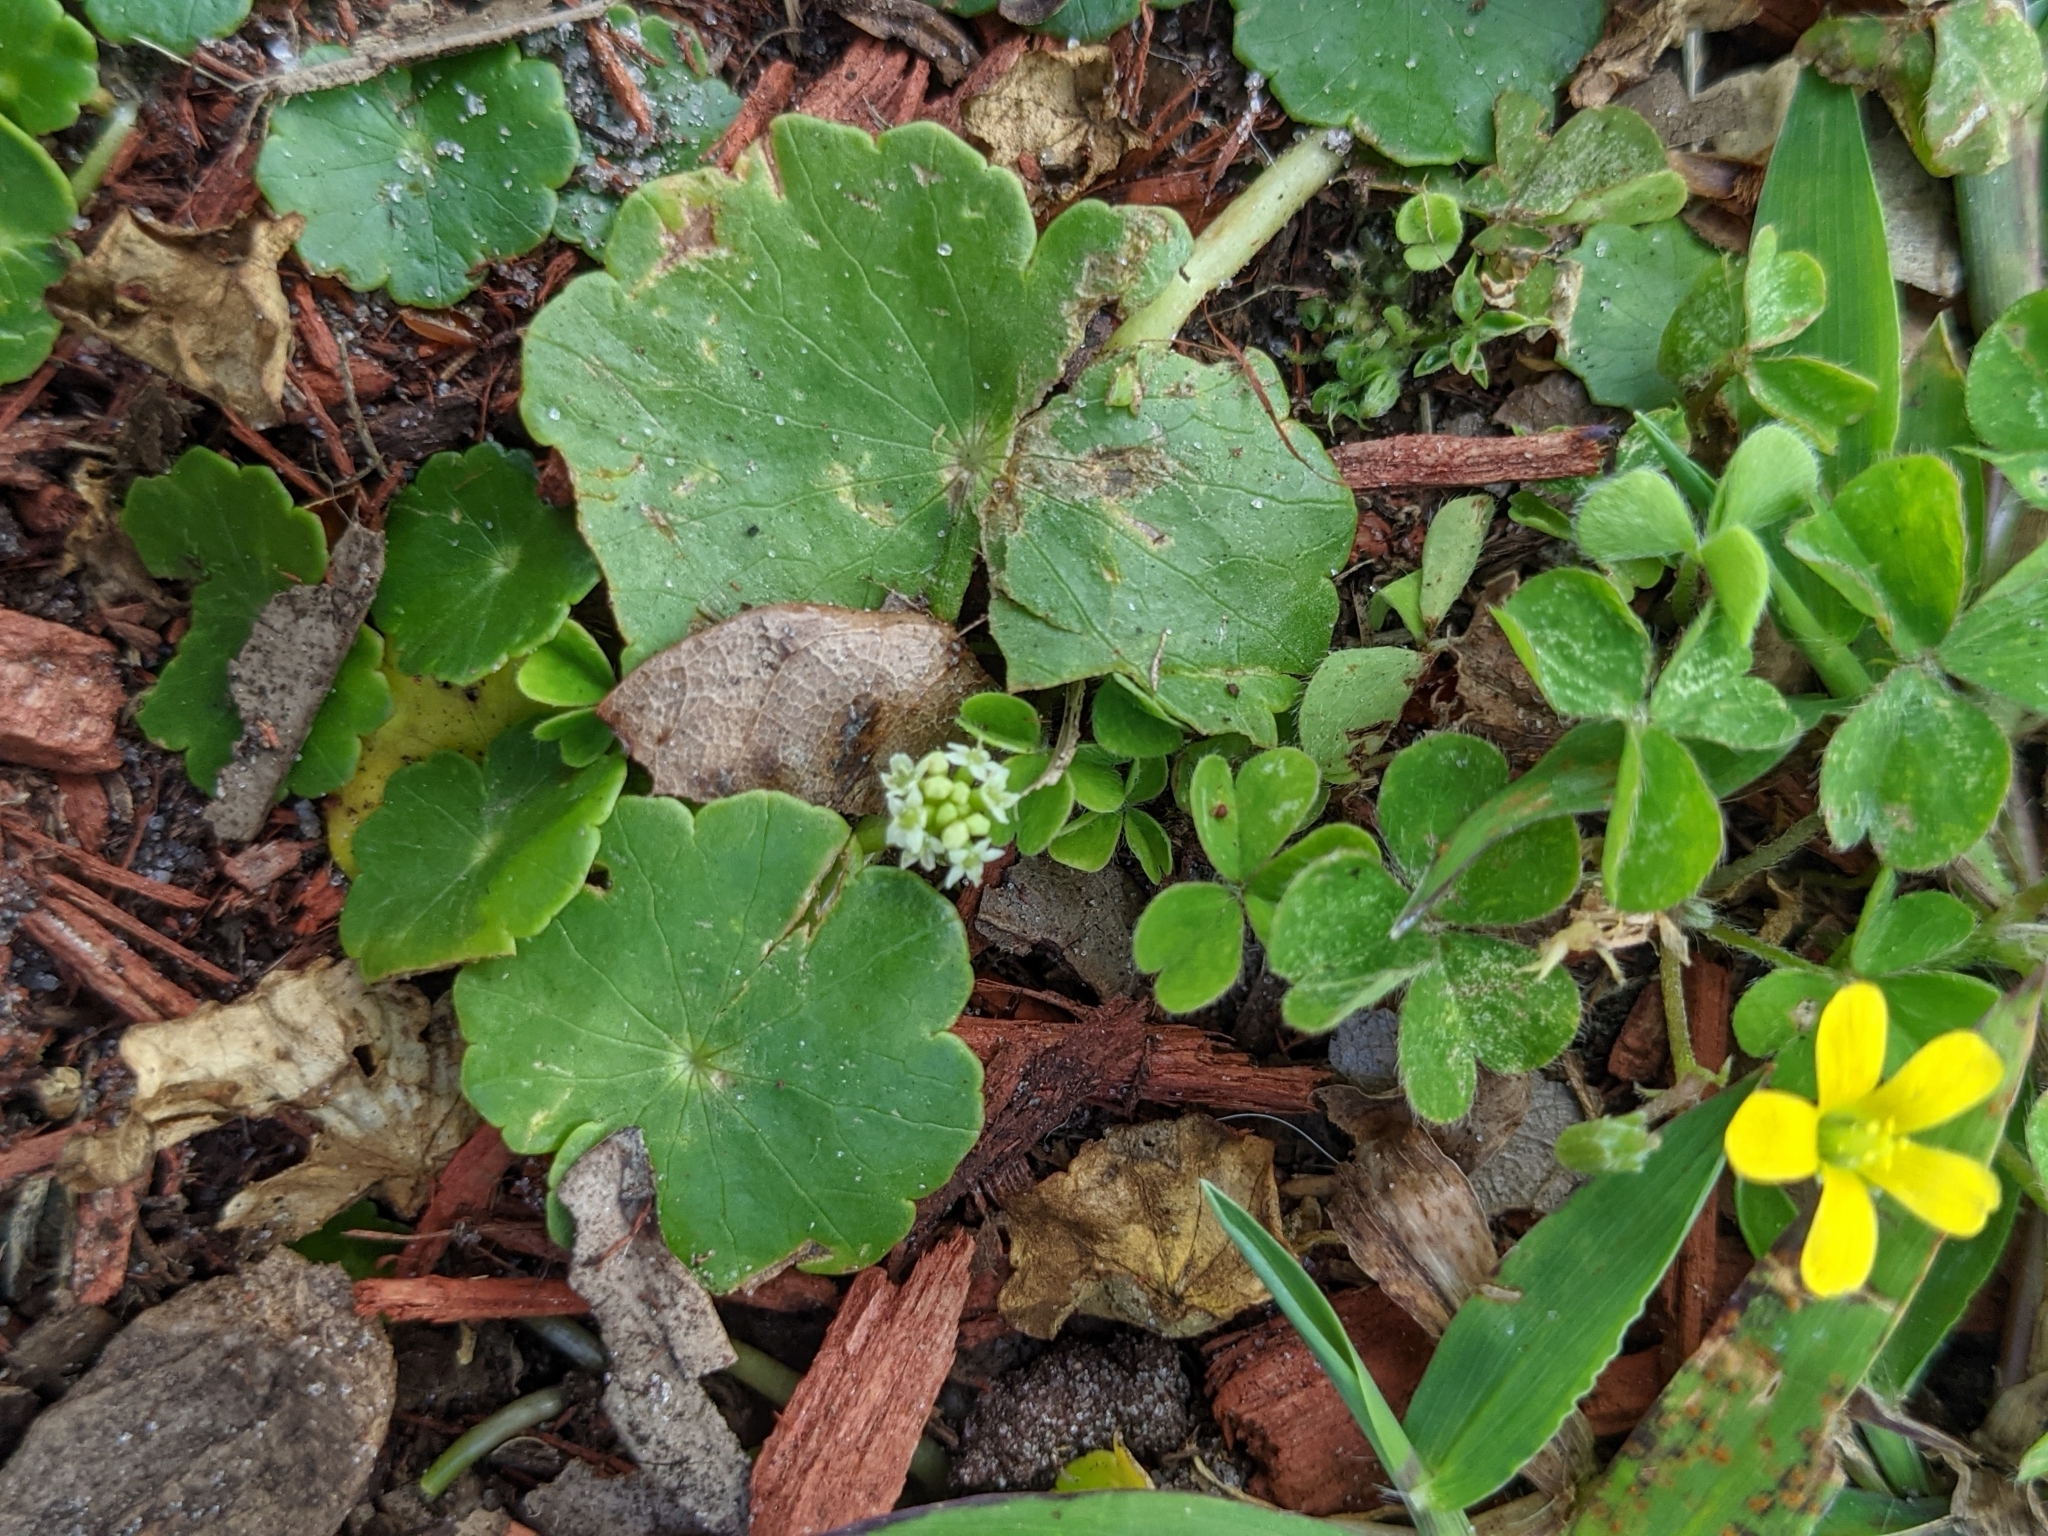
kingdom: Plantae
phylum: Tracheophyta
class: Magnoliopsida
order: Apiales
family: Araliaceae
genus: Hydrocotyle
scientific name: Hydrocotyle umbellata
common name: Water pennywort
